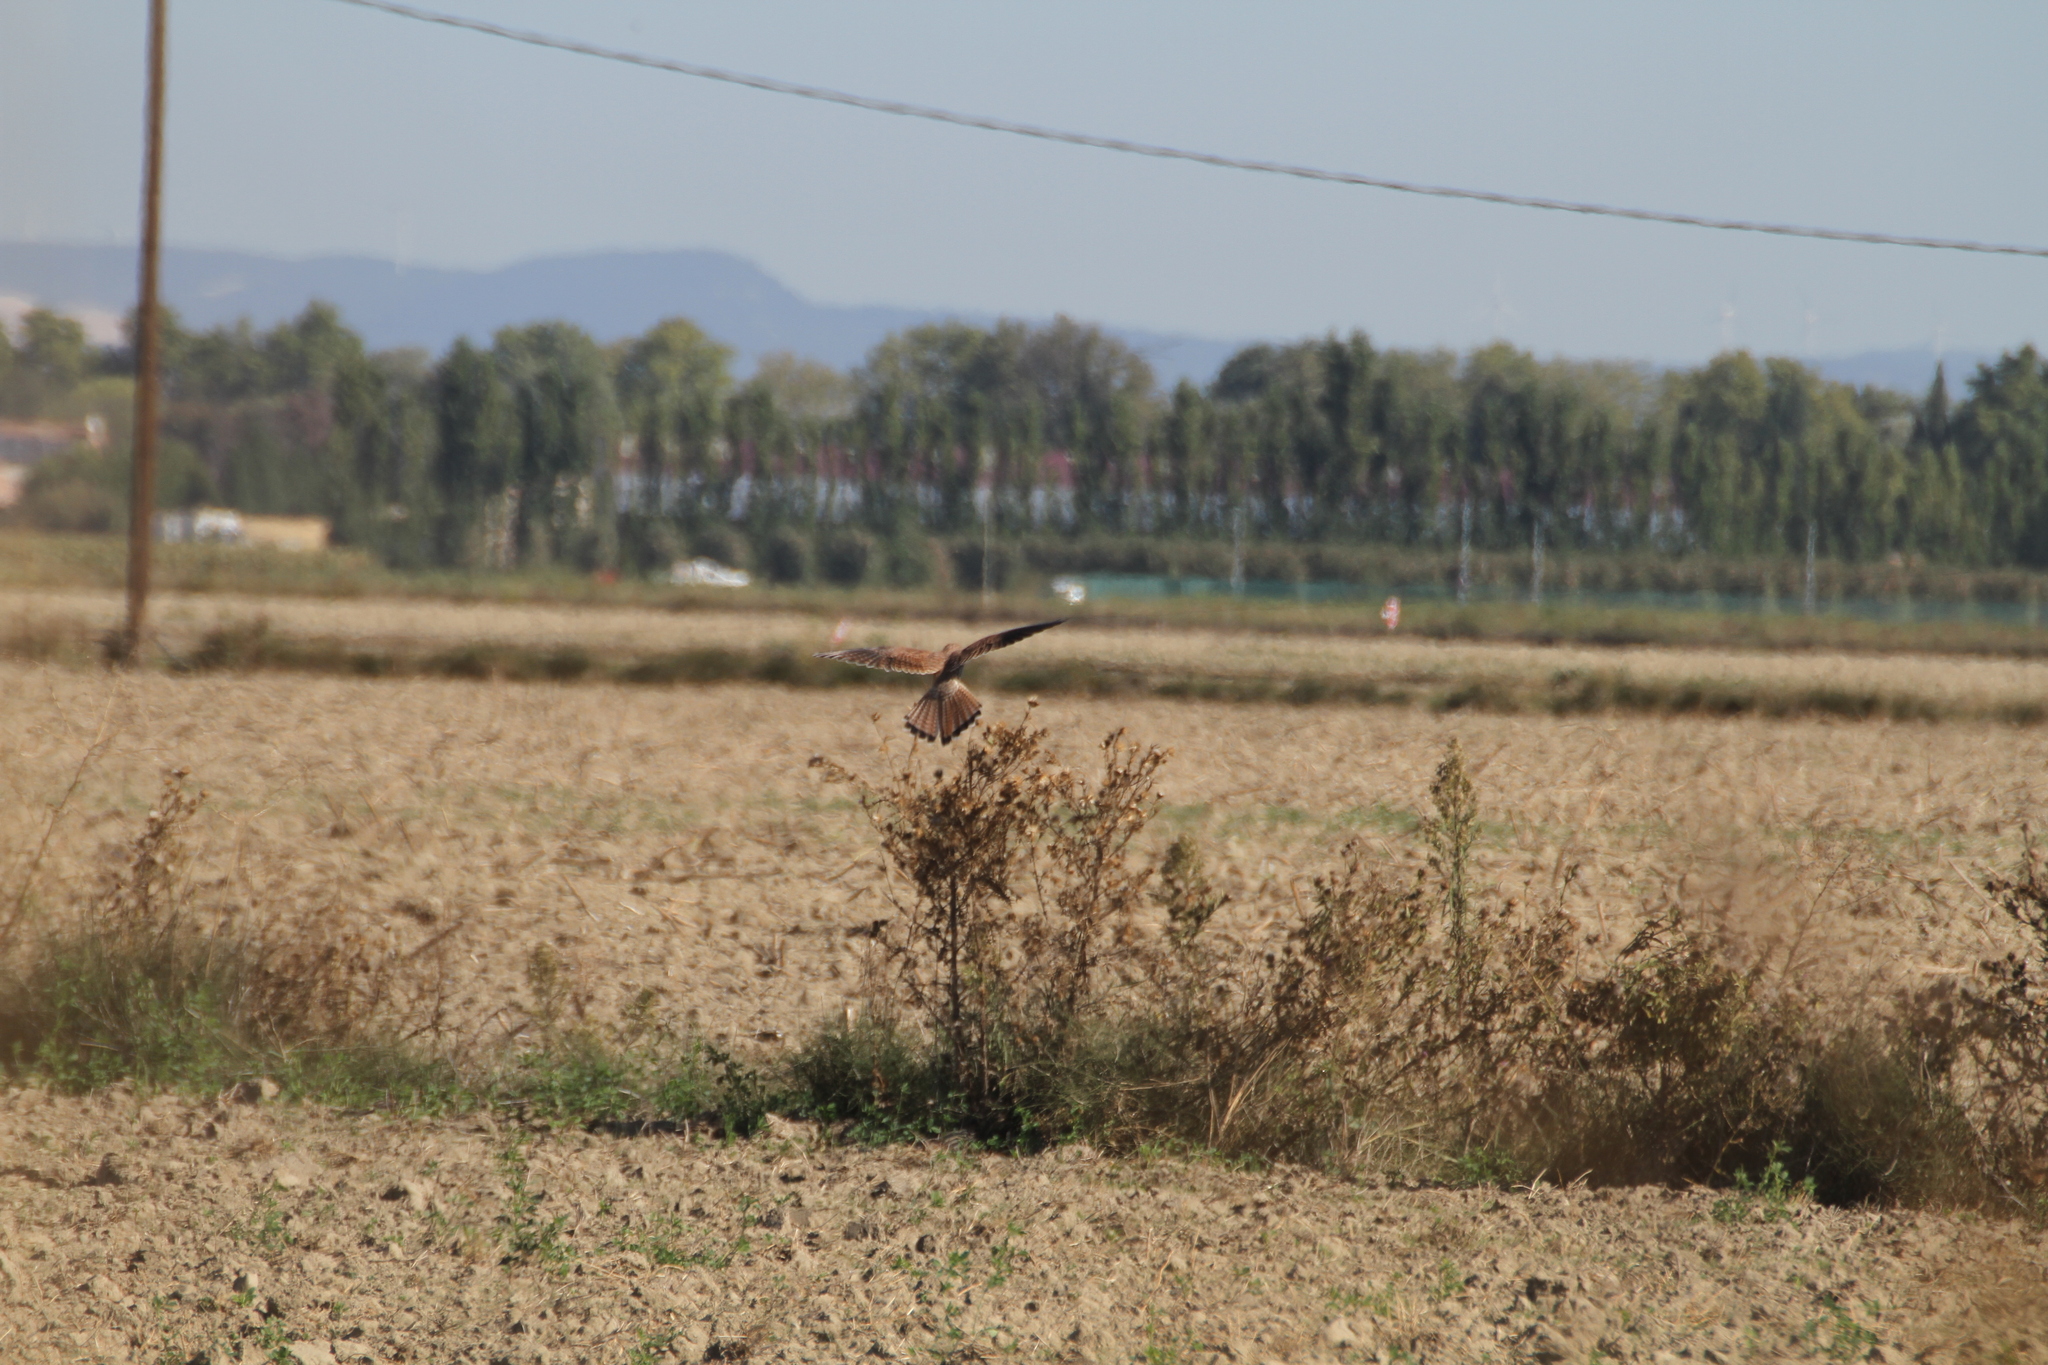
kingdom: Animalia
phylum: Chordata
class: Aves
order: Falconiformes
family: Falconidae
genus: Falco
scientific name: Falco tinnunculus
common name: Common kestrel
